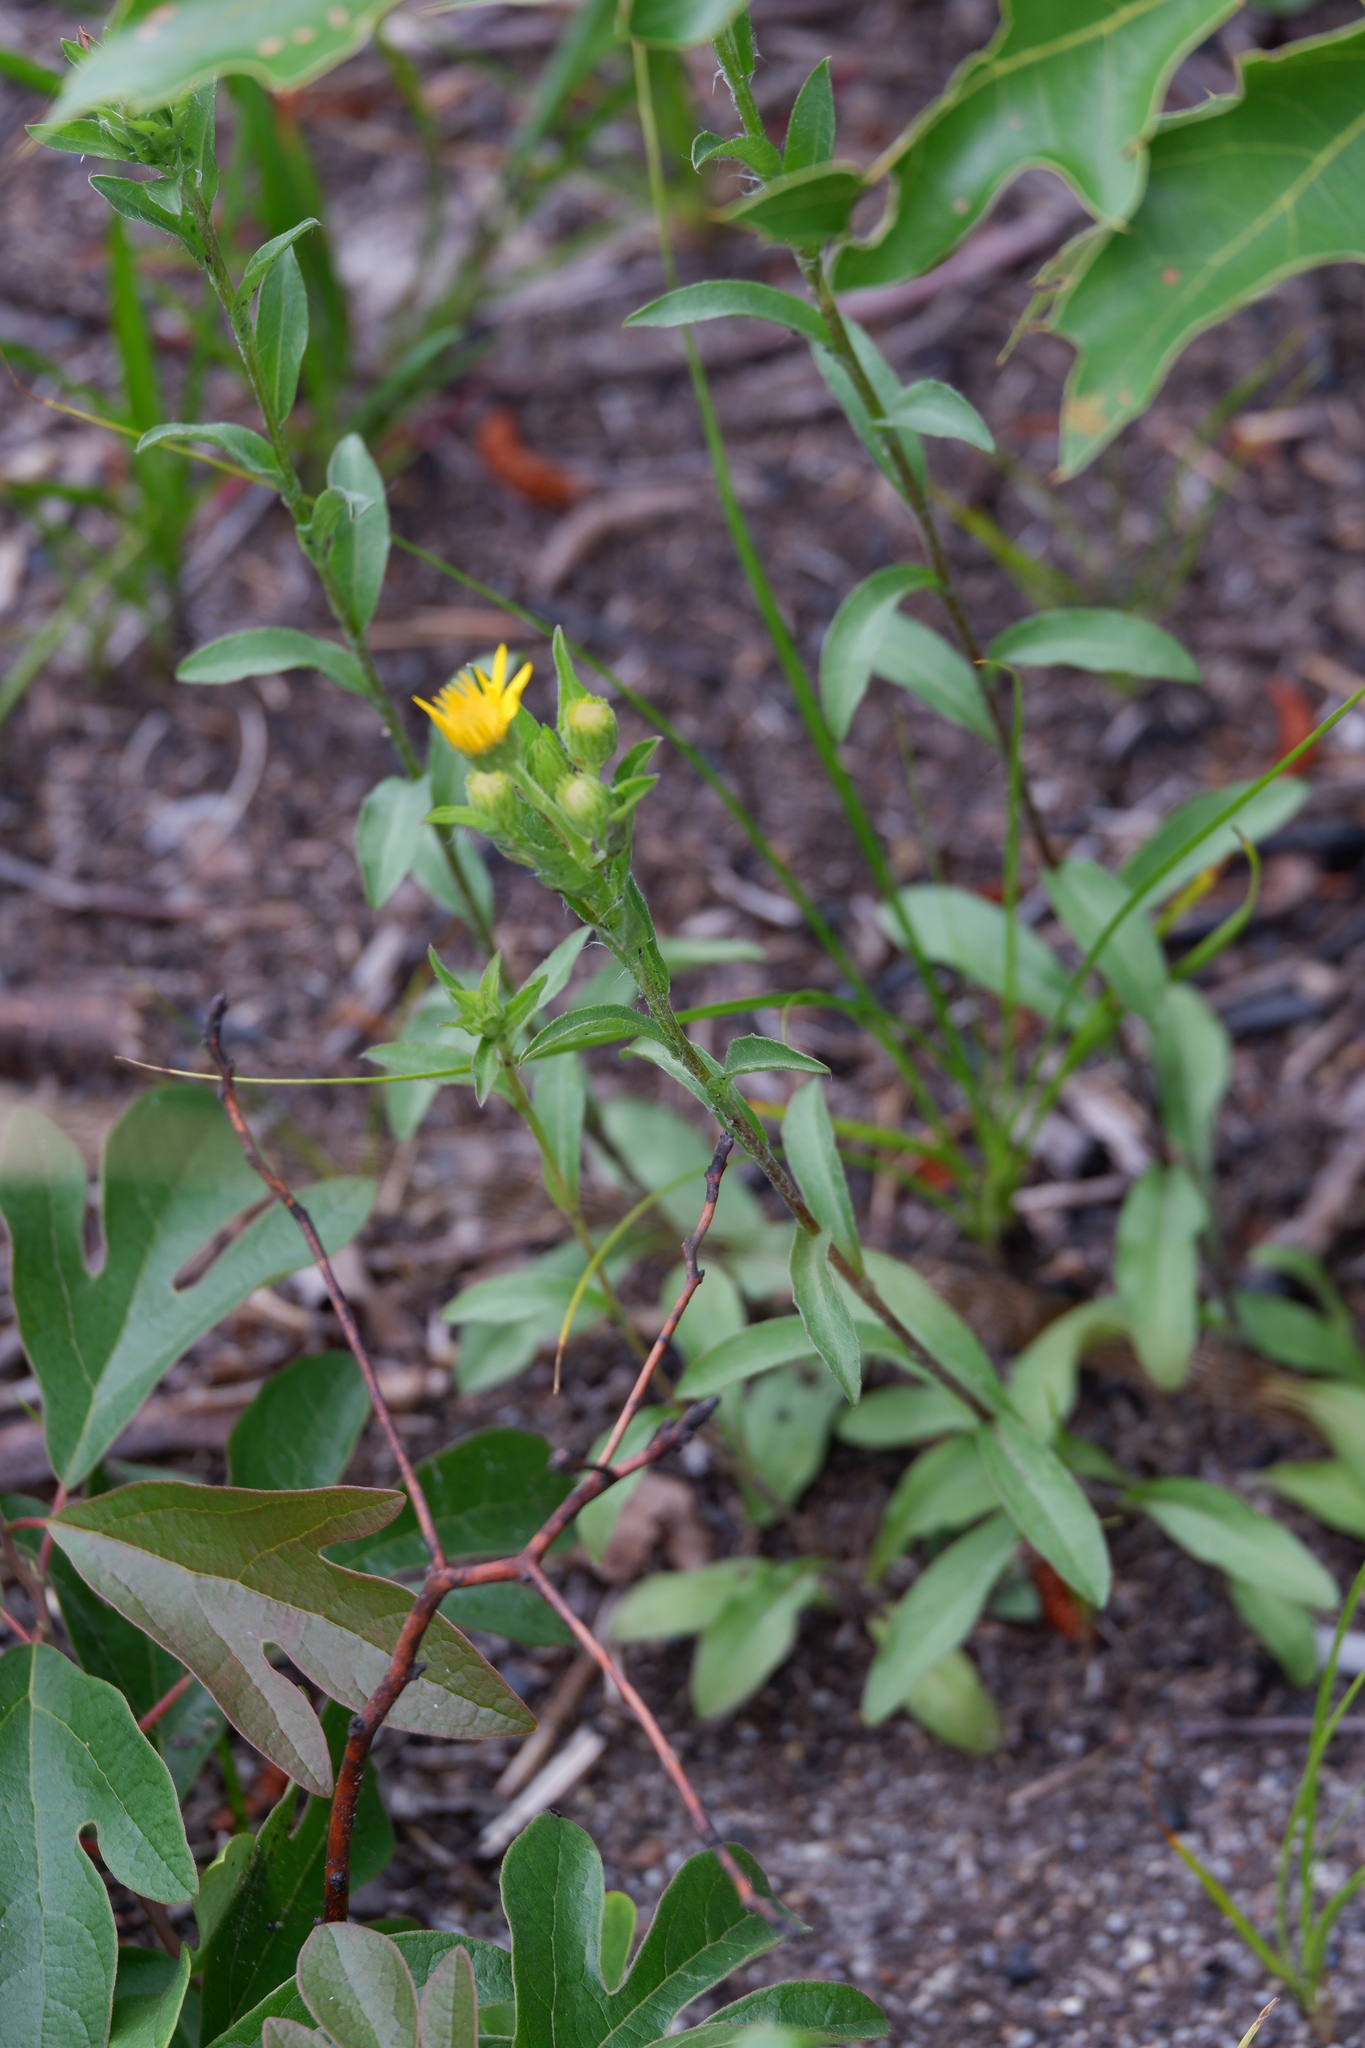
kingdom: Plantae
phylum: Tracheophyta
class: Magnoliopsida
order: Asterales
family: Asteraceae
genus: Chrysopsis
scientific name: Chrysopsis mariana
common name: Maryland golden-aster
